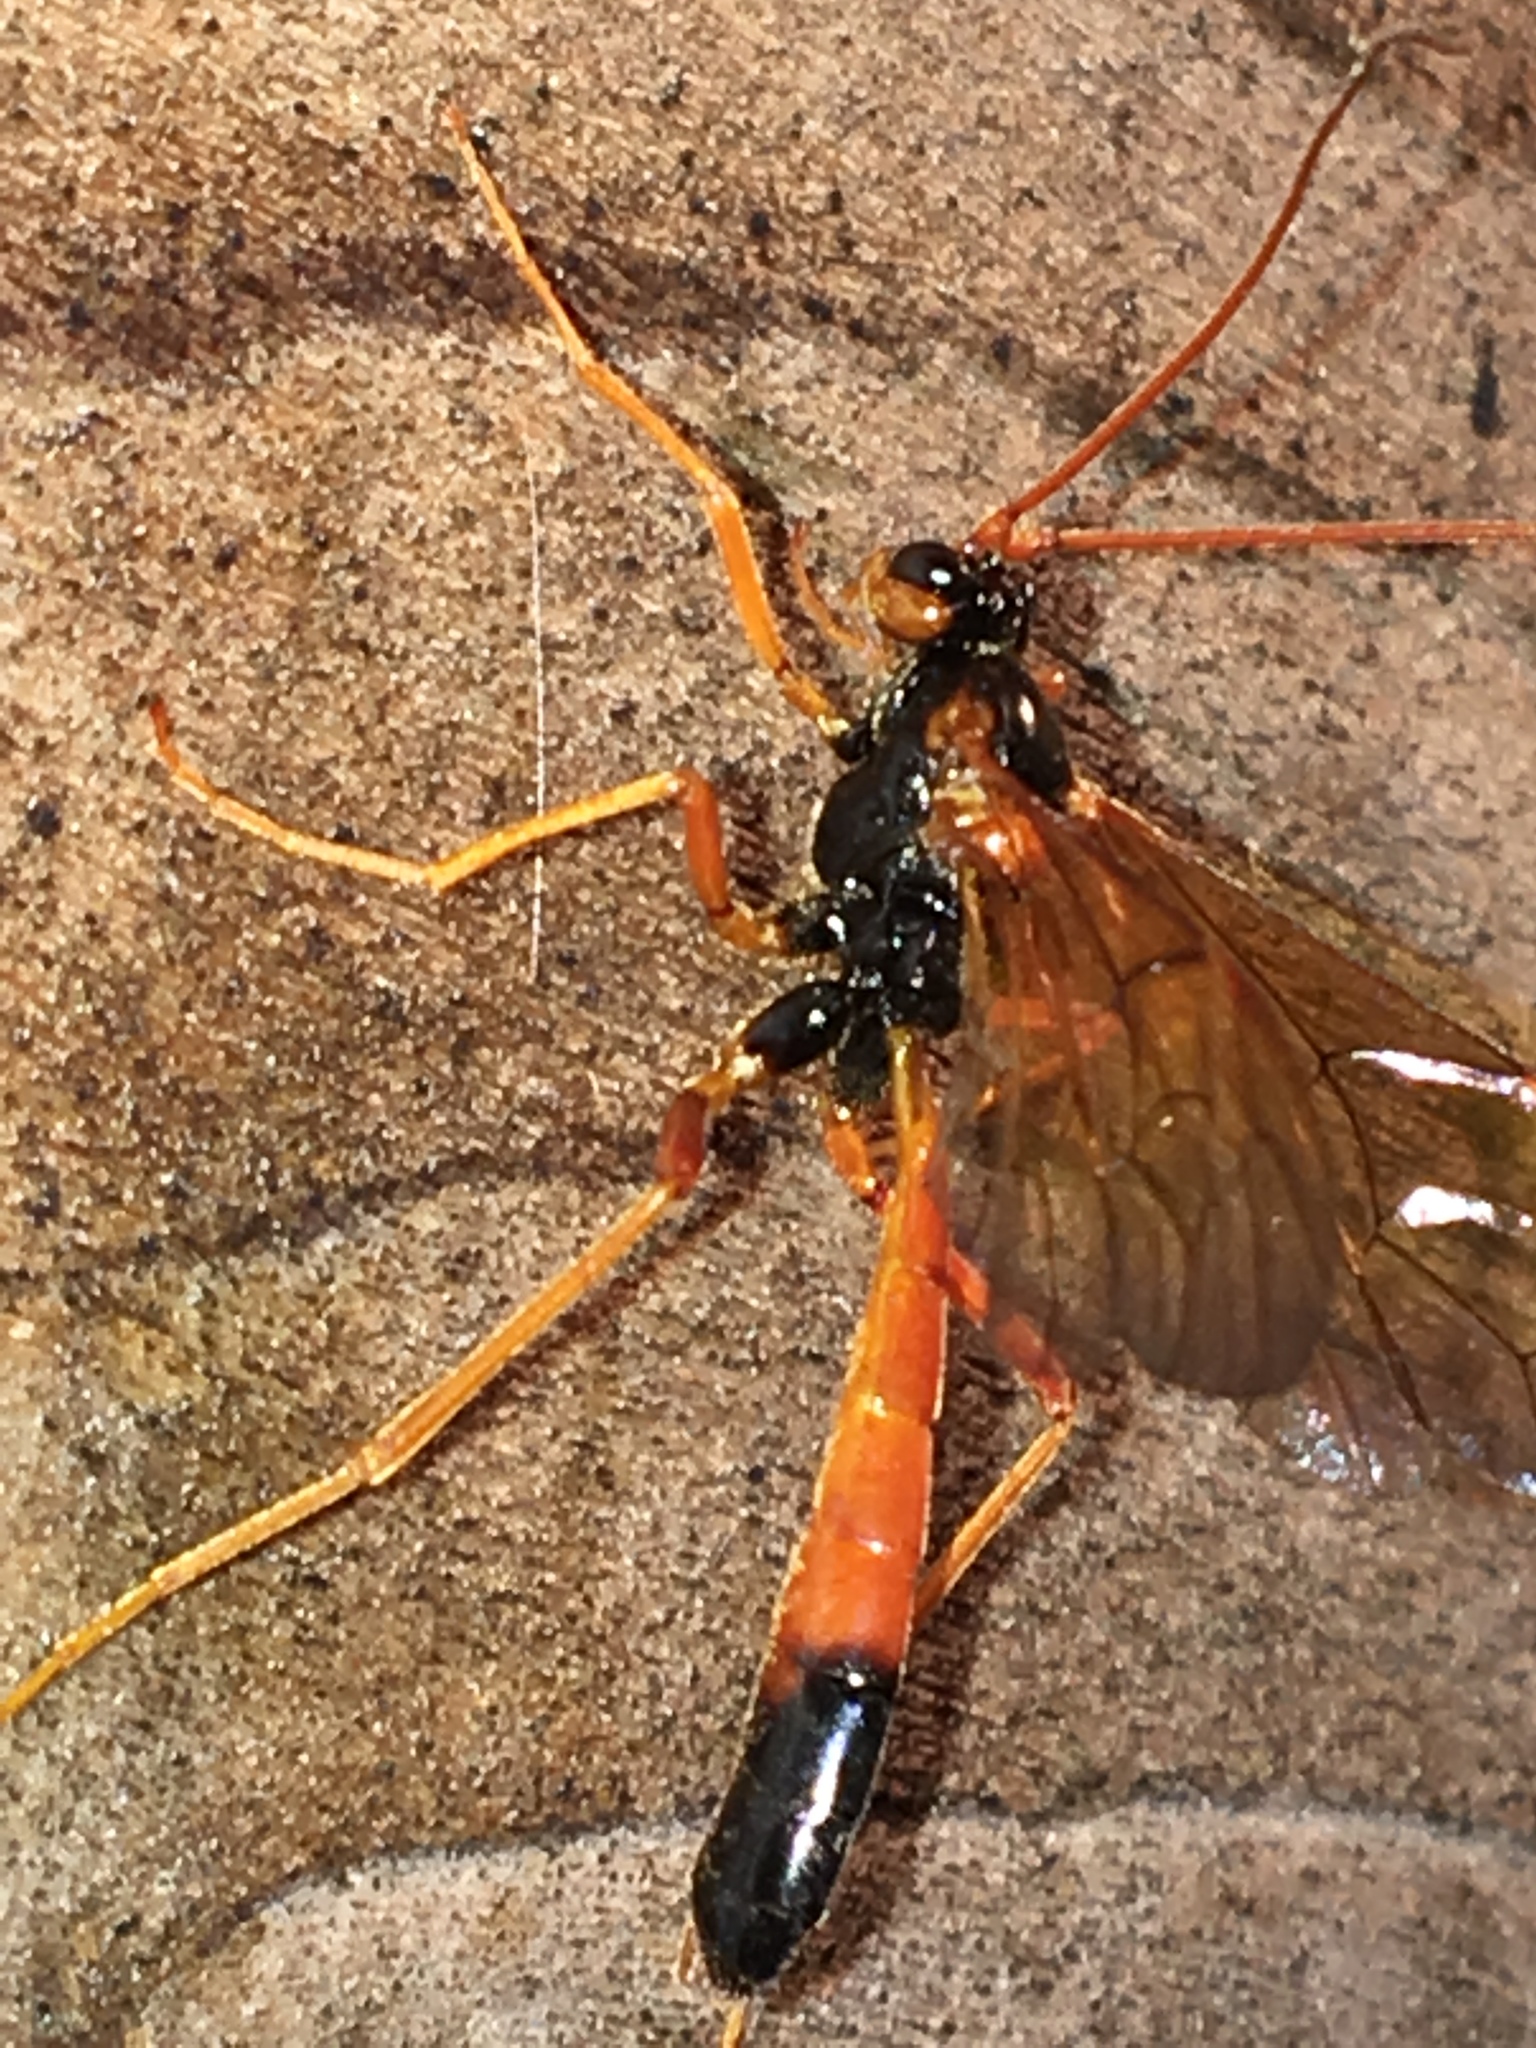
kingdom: Animalia
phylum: Arthropoda
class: Insecta
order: Hymenoptera
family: Ichneumonidae
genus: Opheltes
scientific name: Opheltes glaucopterus
